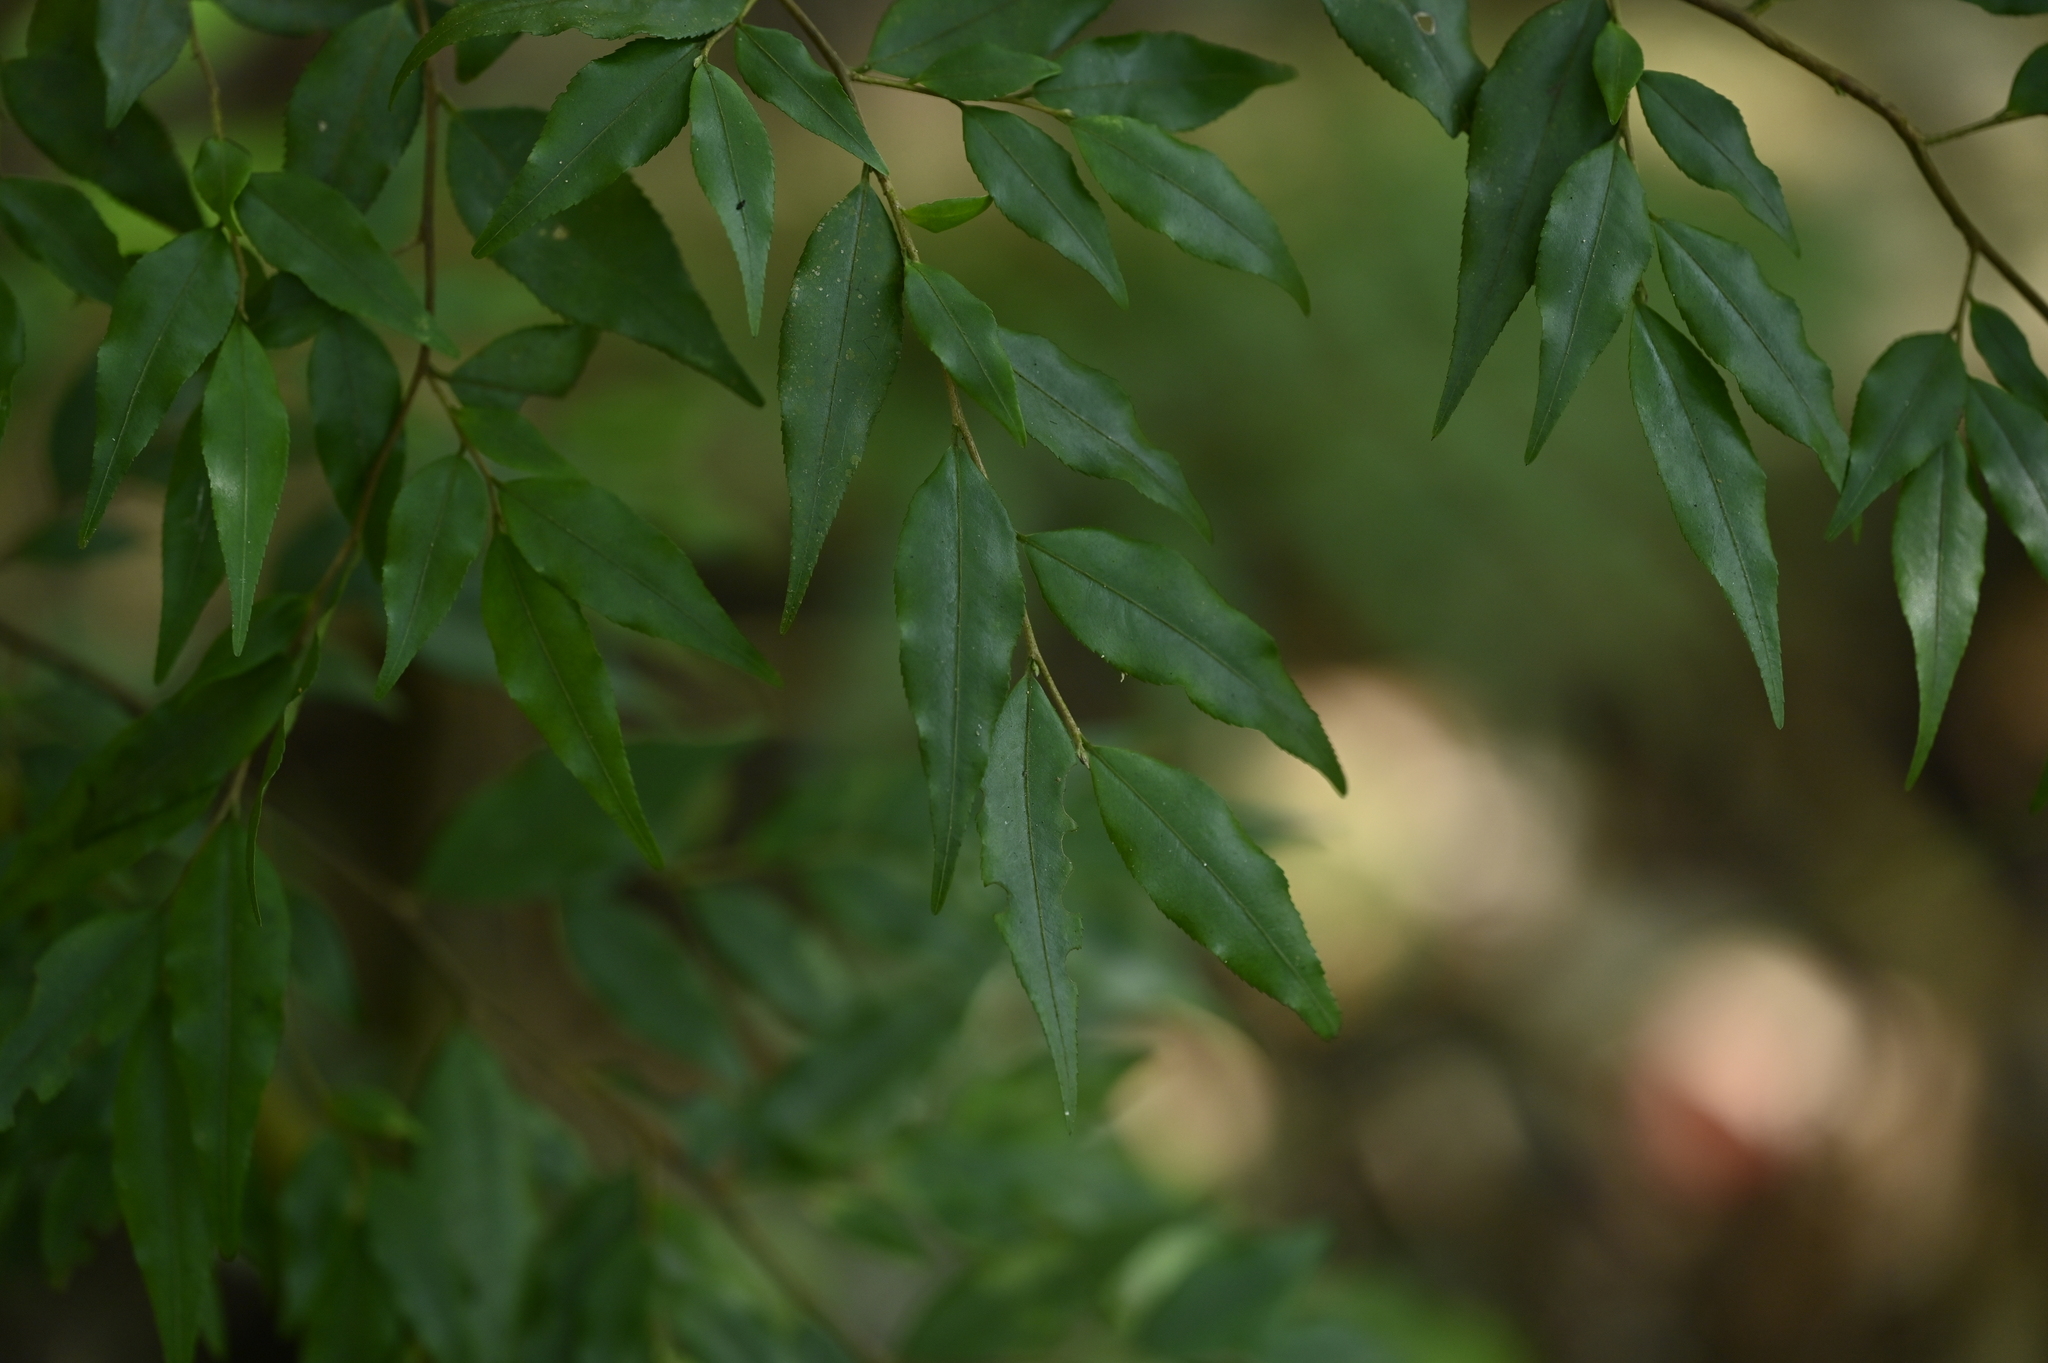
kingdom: Plantae
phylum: Tracheophyta
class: Magnoliopsida
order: Ericales
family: Theaceae
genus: Camellia
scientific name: Camellia euryoides
